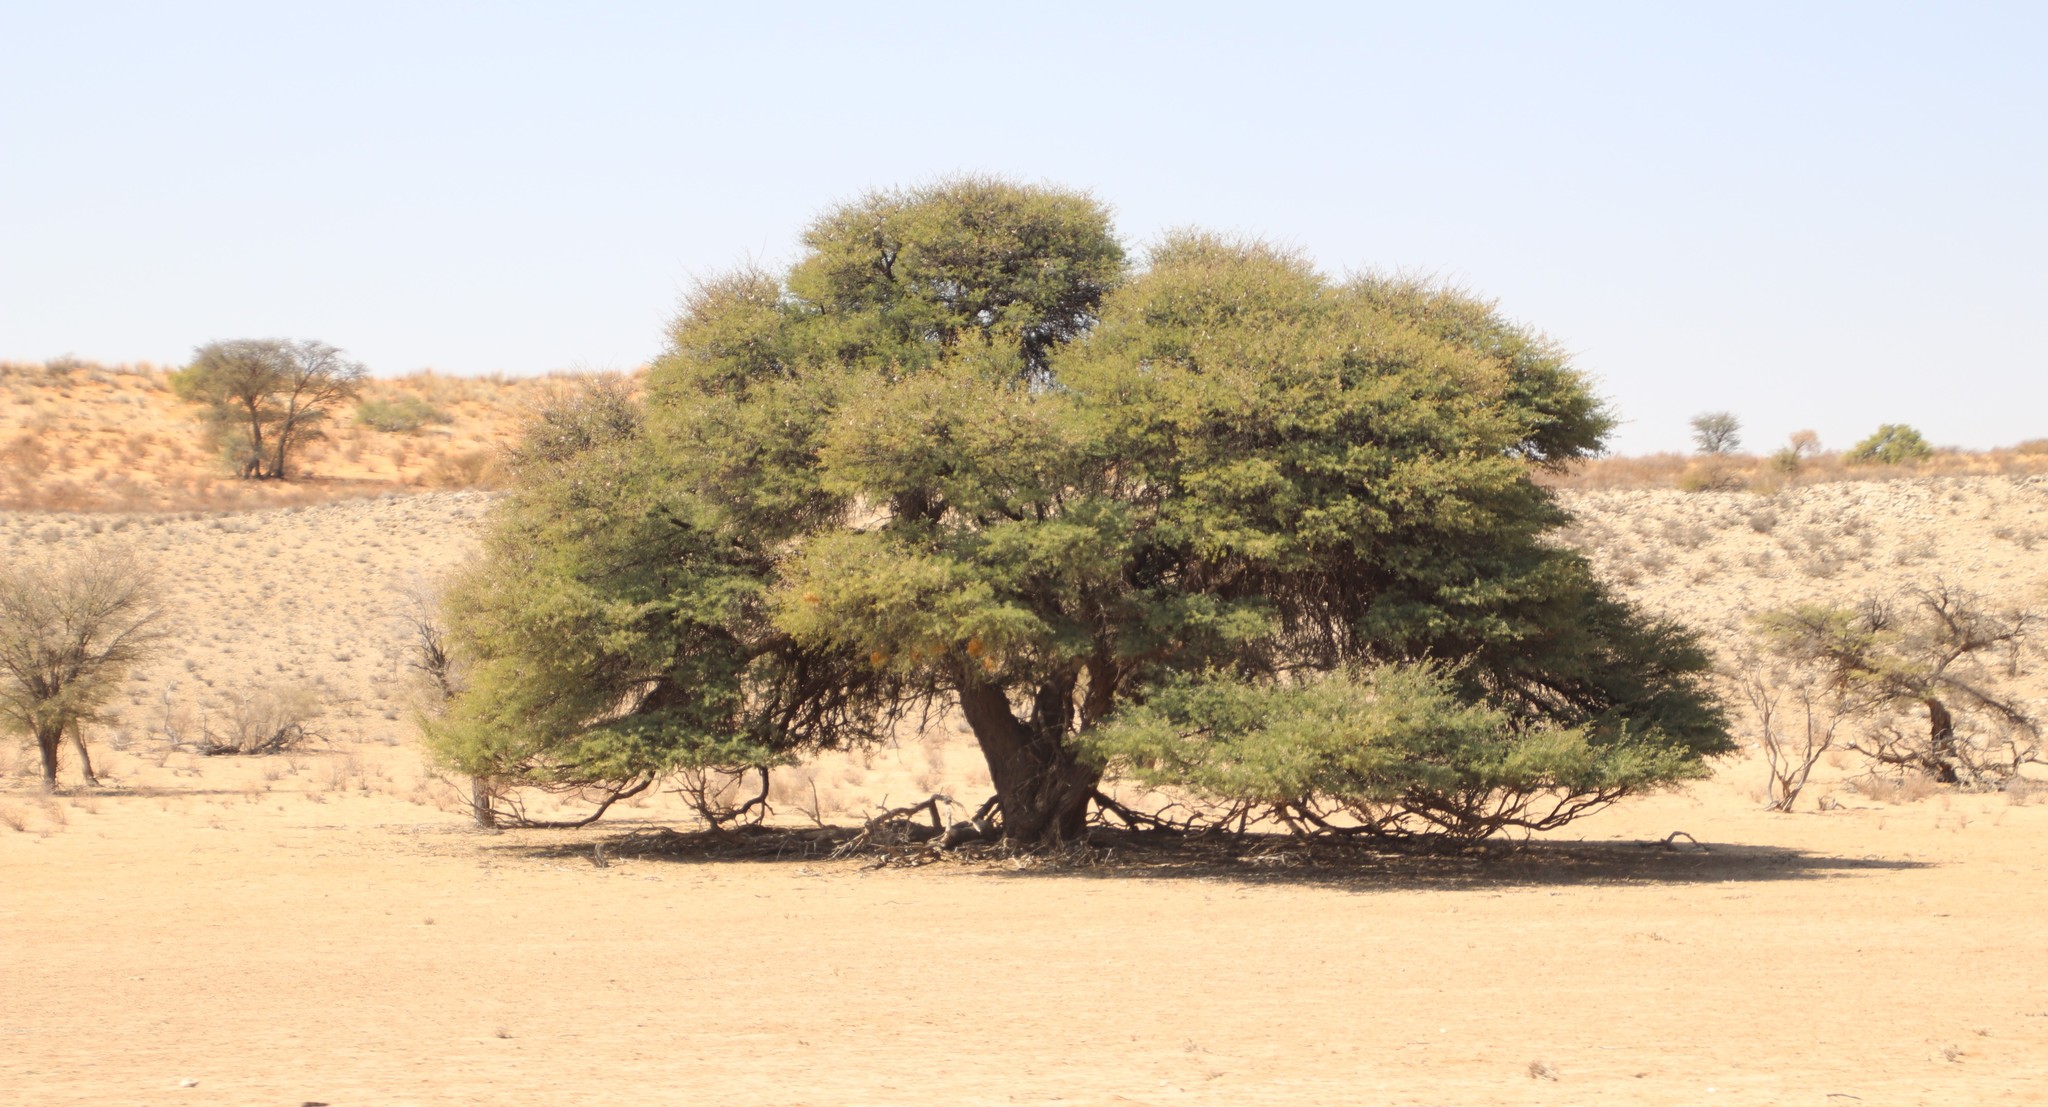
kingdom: Plantae
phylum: Tracheophyta
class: Magnoliopsida
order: Fabales
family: Fabaceae
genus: Vachellia
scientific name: Vachellia erioloba
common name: Camel thorn
